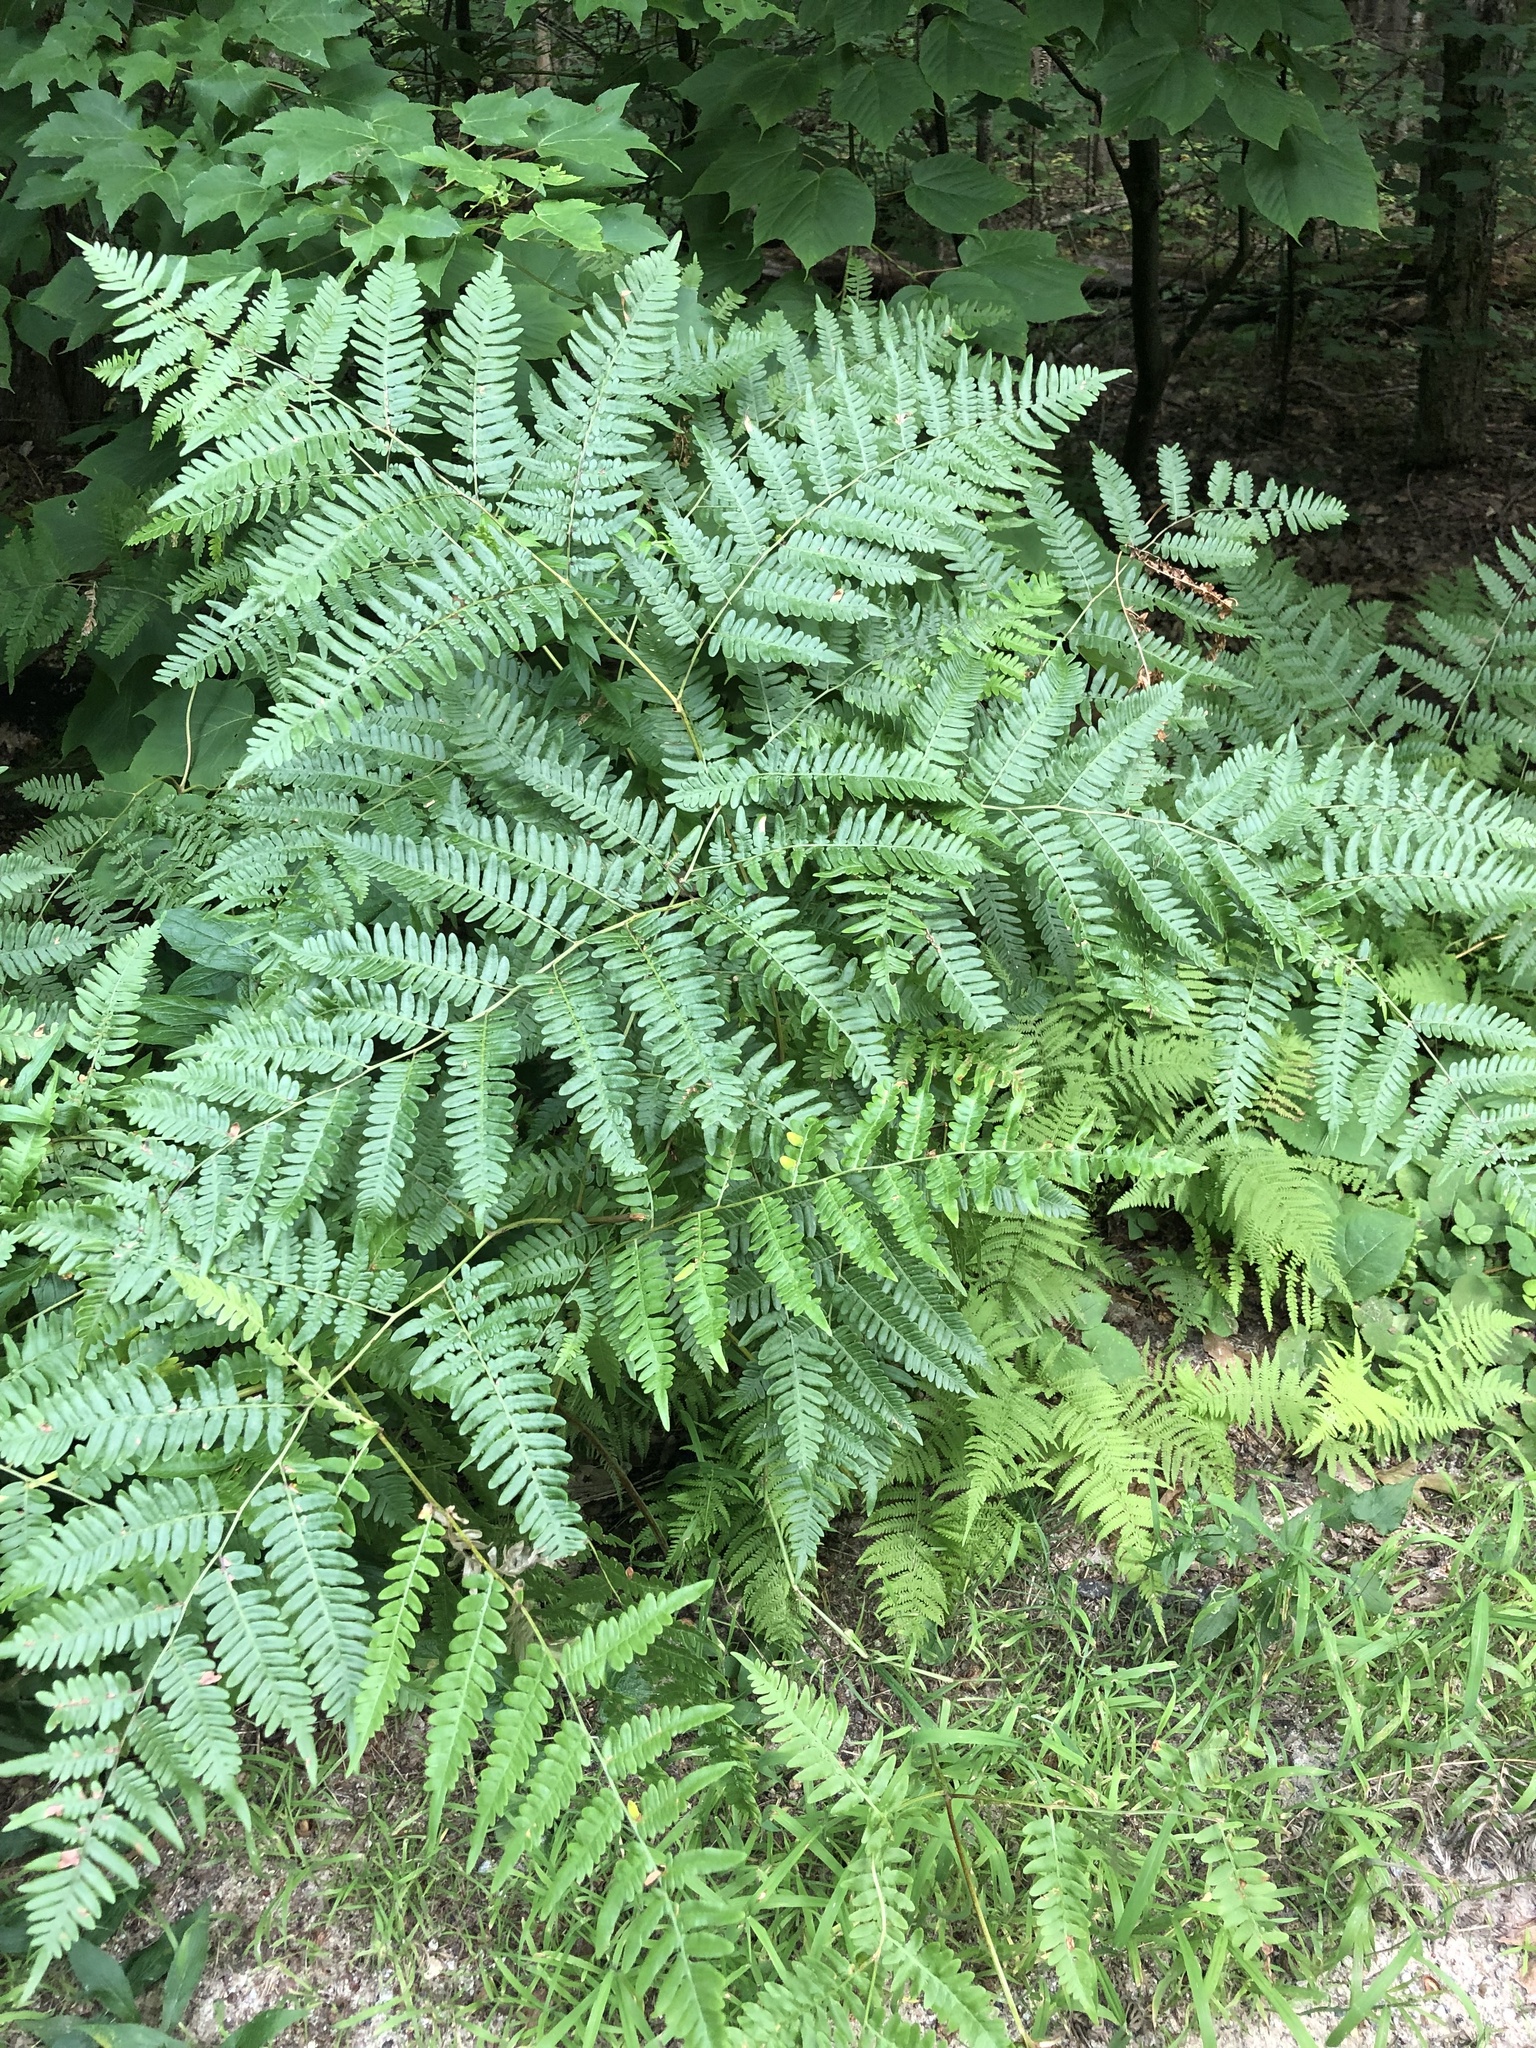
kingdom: Plantae
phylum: Tracheophyta
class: Polypodiopsida
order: Polypodiales
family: Dennstaedtiaceae
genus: Pteridium
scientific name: Pteridium aquilinum
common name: Bracken
